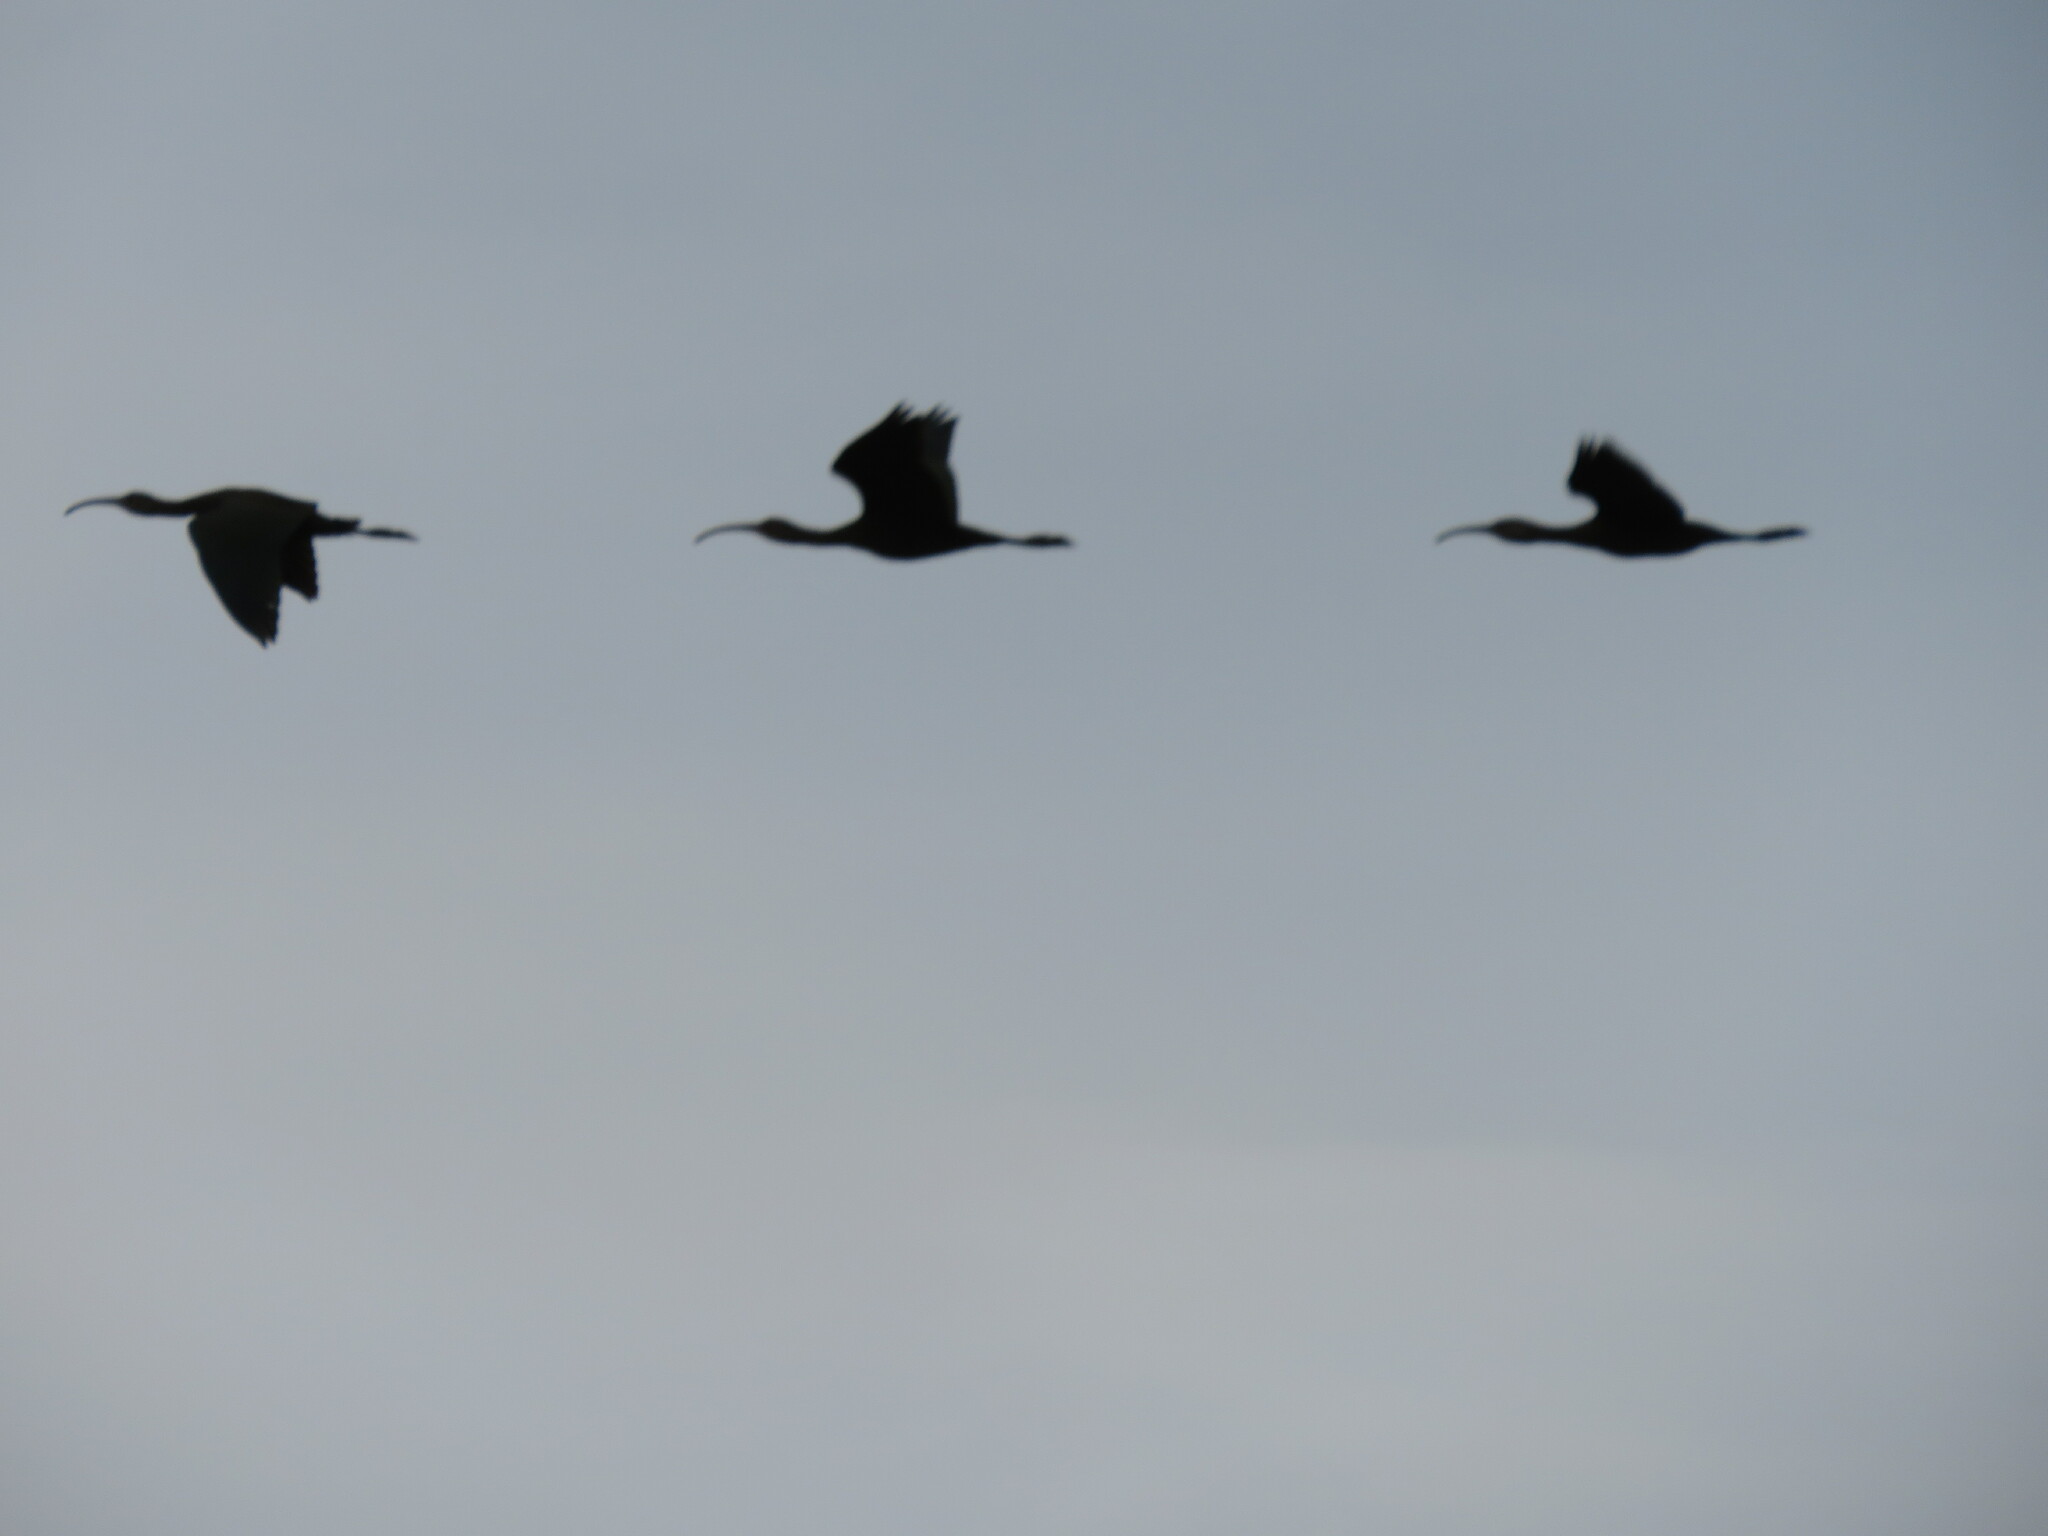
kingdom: Animalia
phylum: Chordata
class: Aves
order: Pelecaniformes
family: Threskiornithidae
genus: Plegadis
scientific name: Plegadis chihi
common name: White-faced ibis
